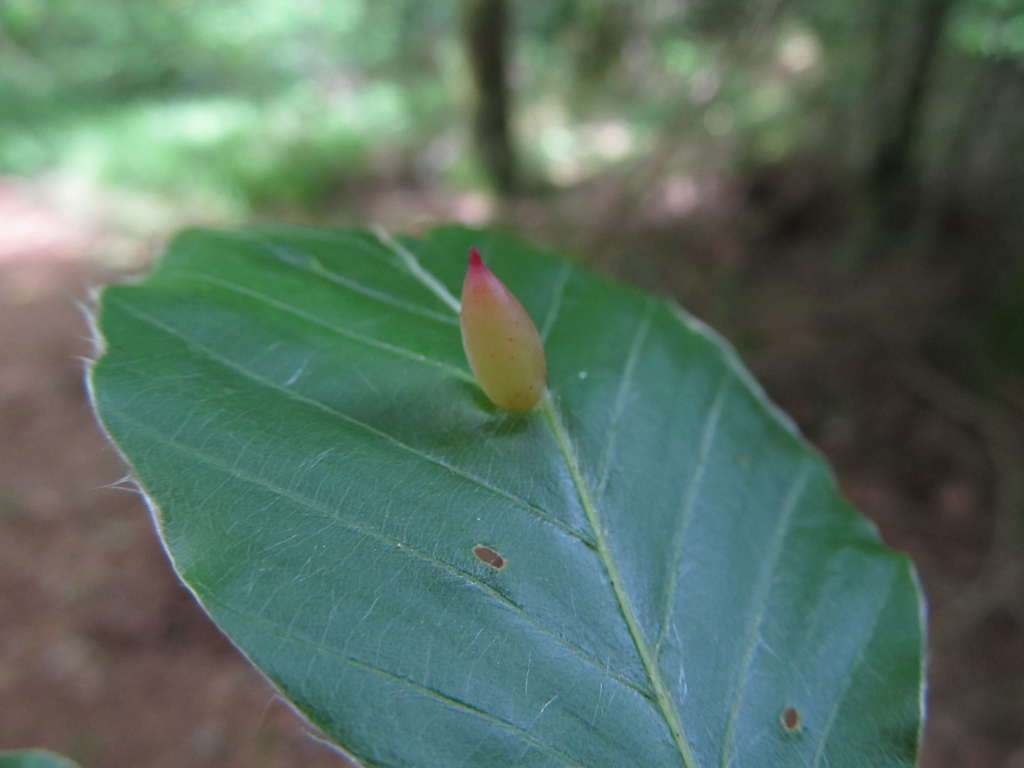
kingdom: Animalia
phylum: Arthropoda
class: Insecta
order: Diptera
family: Cecidomyiidae
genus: Mikiola
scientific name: Mikiola fagi
